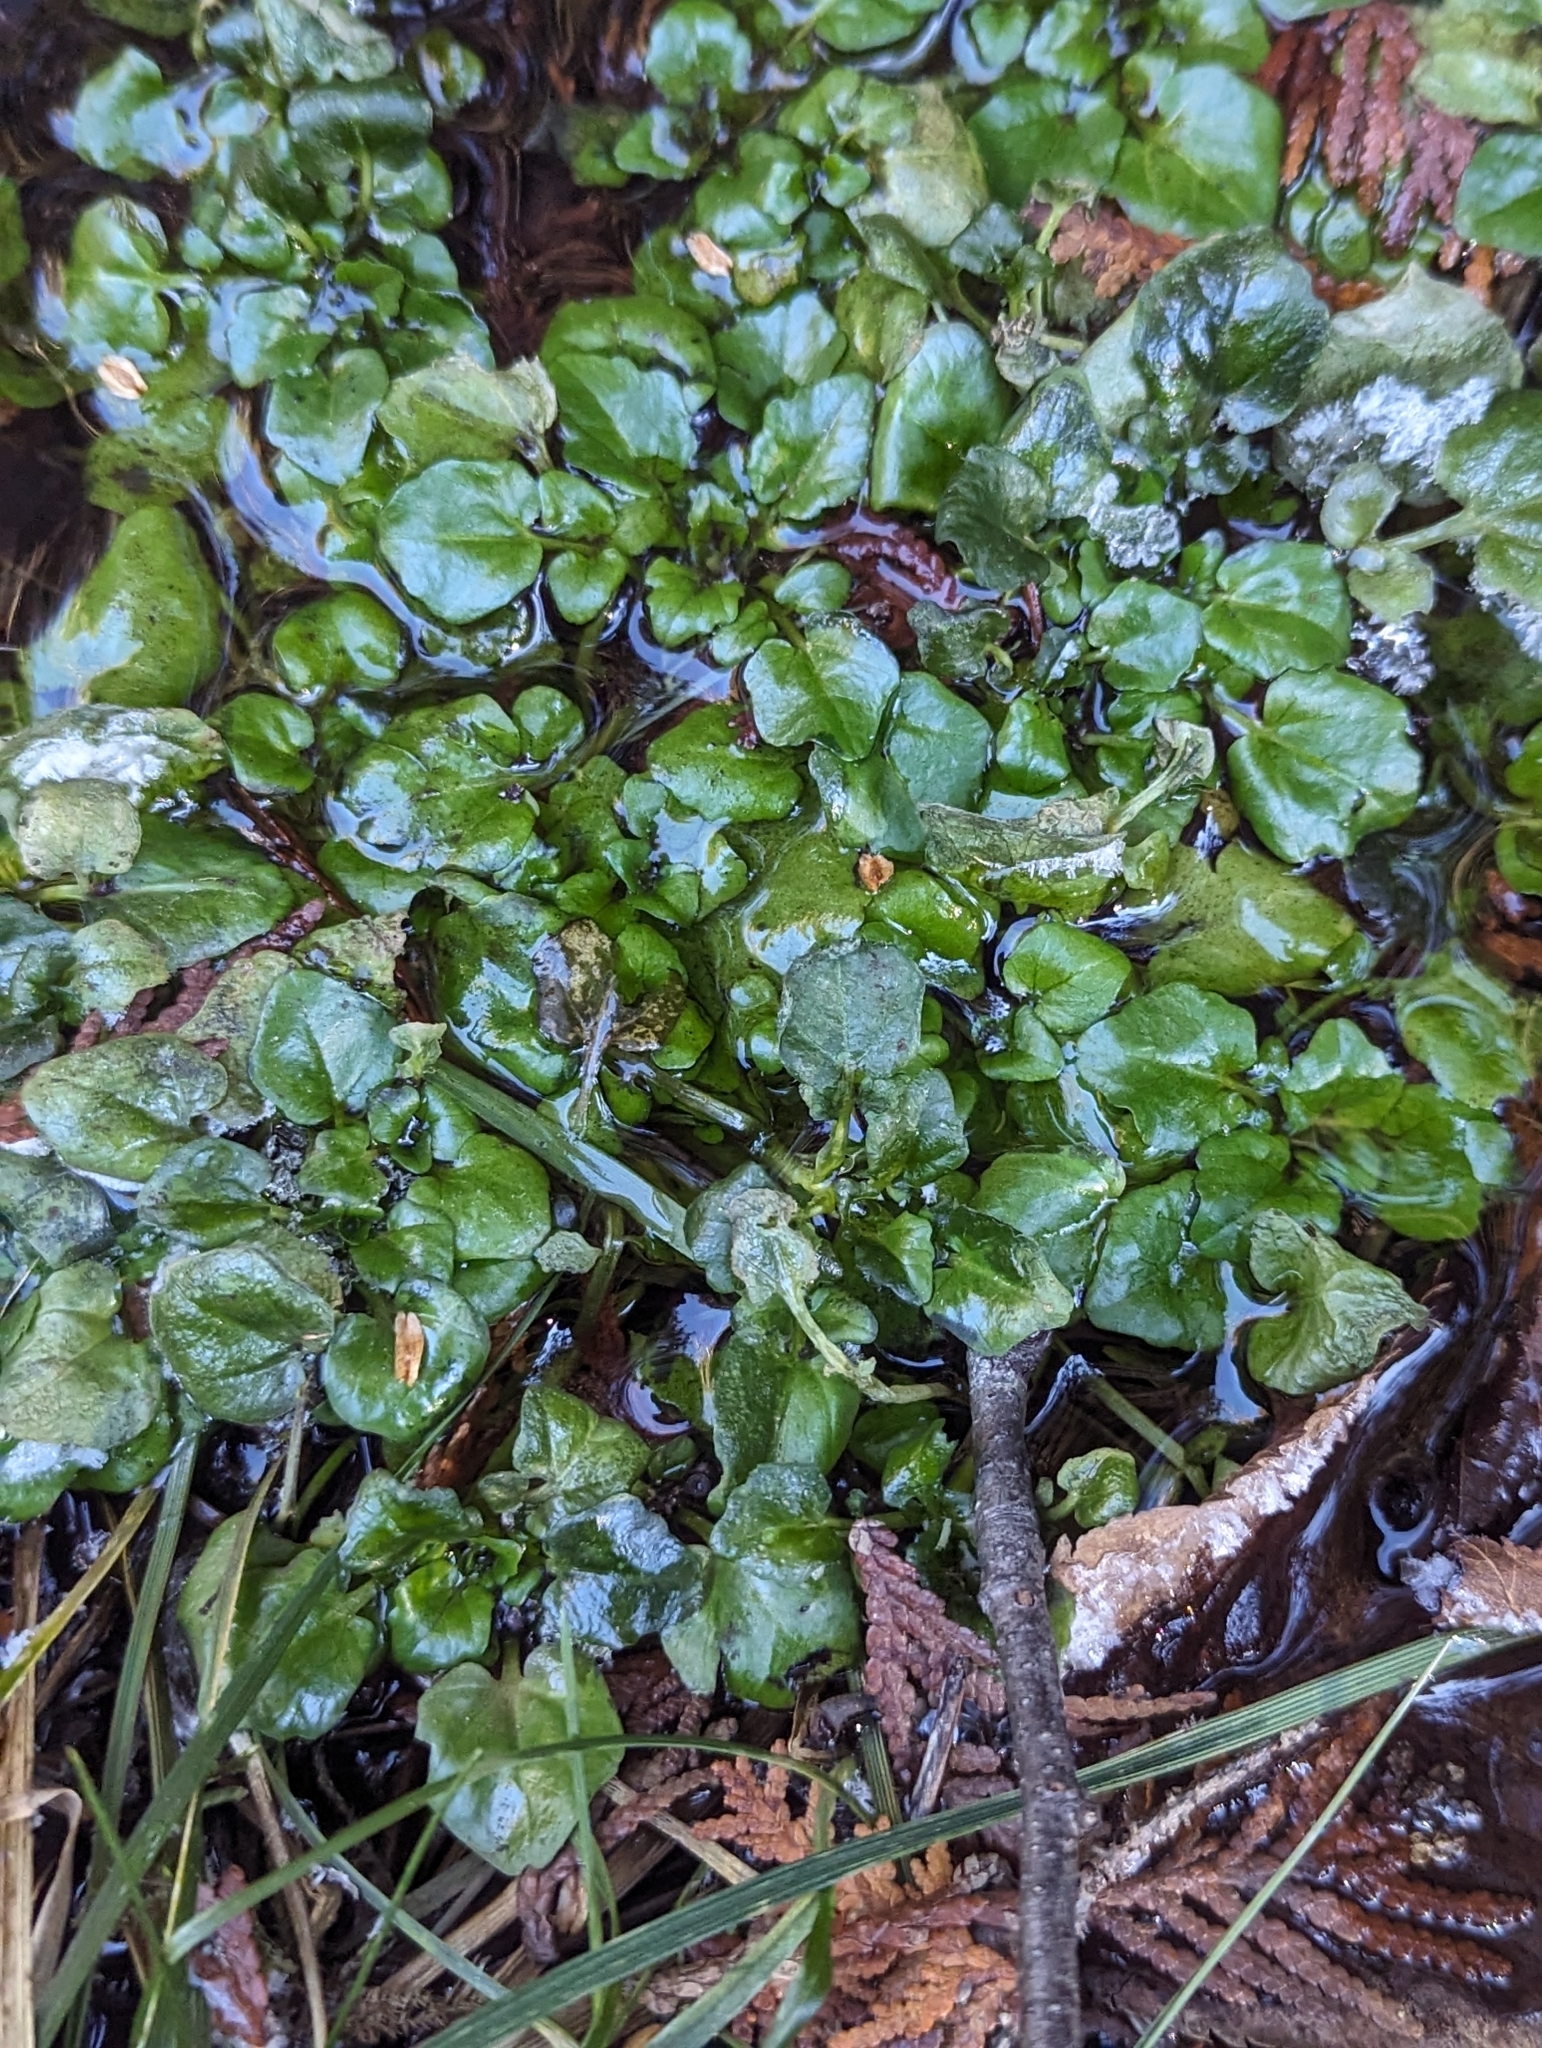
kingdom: Plantae
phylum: Tracheophyta
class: Magnoliopsida
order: Brassicales
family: Brassicaceae
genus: Nasturtium
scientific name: Nasturtium officinale
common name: Watercress
